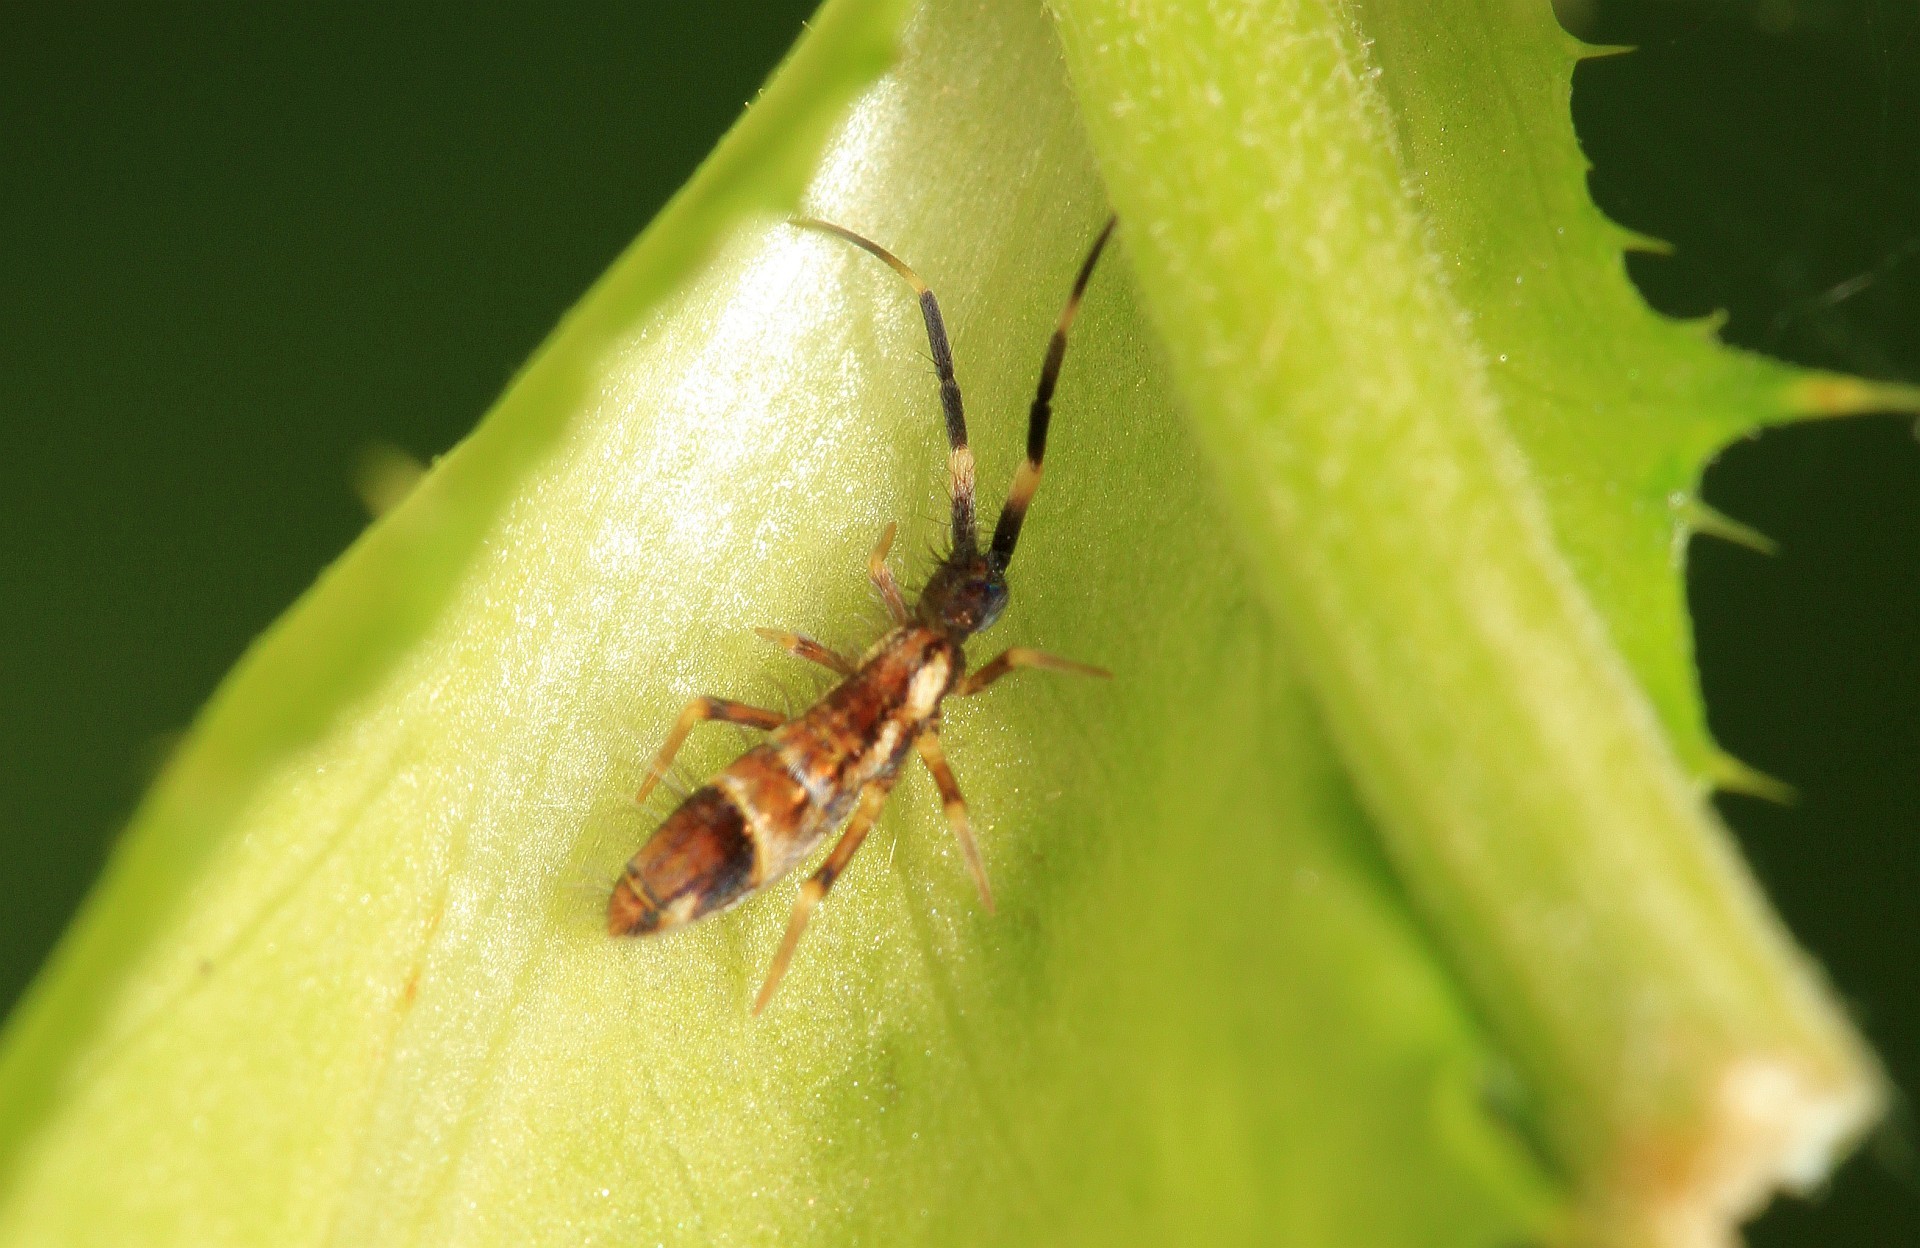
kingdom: Animalia
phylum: Arthropoda
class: Collembola
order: Entomobryomorpha
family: Entomobryidae
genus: Entomobrya
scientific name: Entomobrya nivalis
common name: Cosmopolitan springtail
